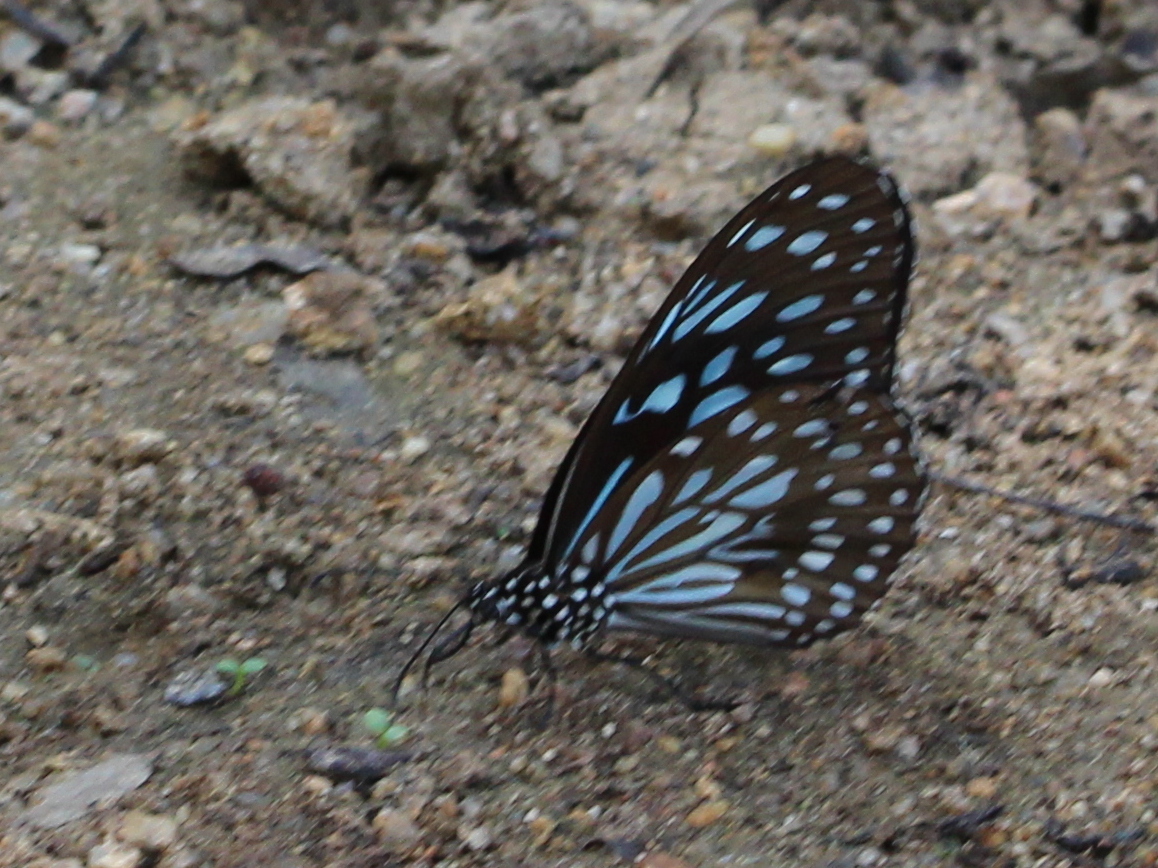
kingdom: Animalia
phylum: Arthropoda
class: Insecta
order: Lepidoptera
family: Nymphalidae
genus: Tirumala
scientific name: Tirumala septentrionis
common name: Dark blue tiger butterfly
